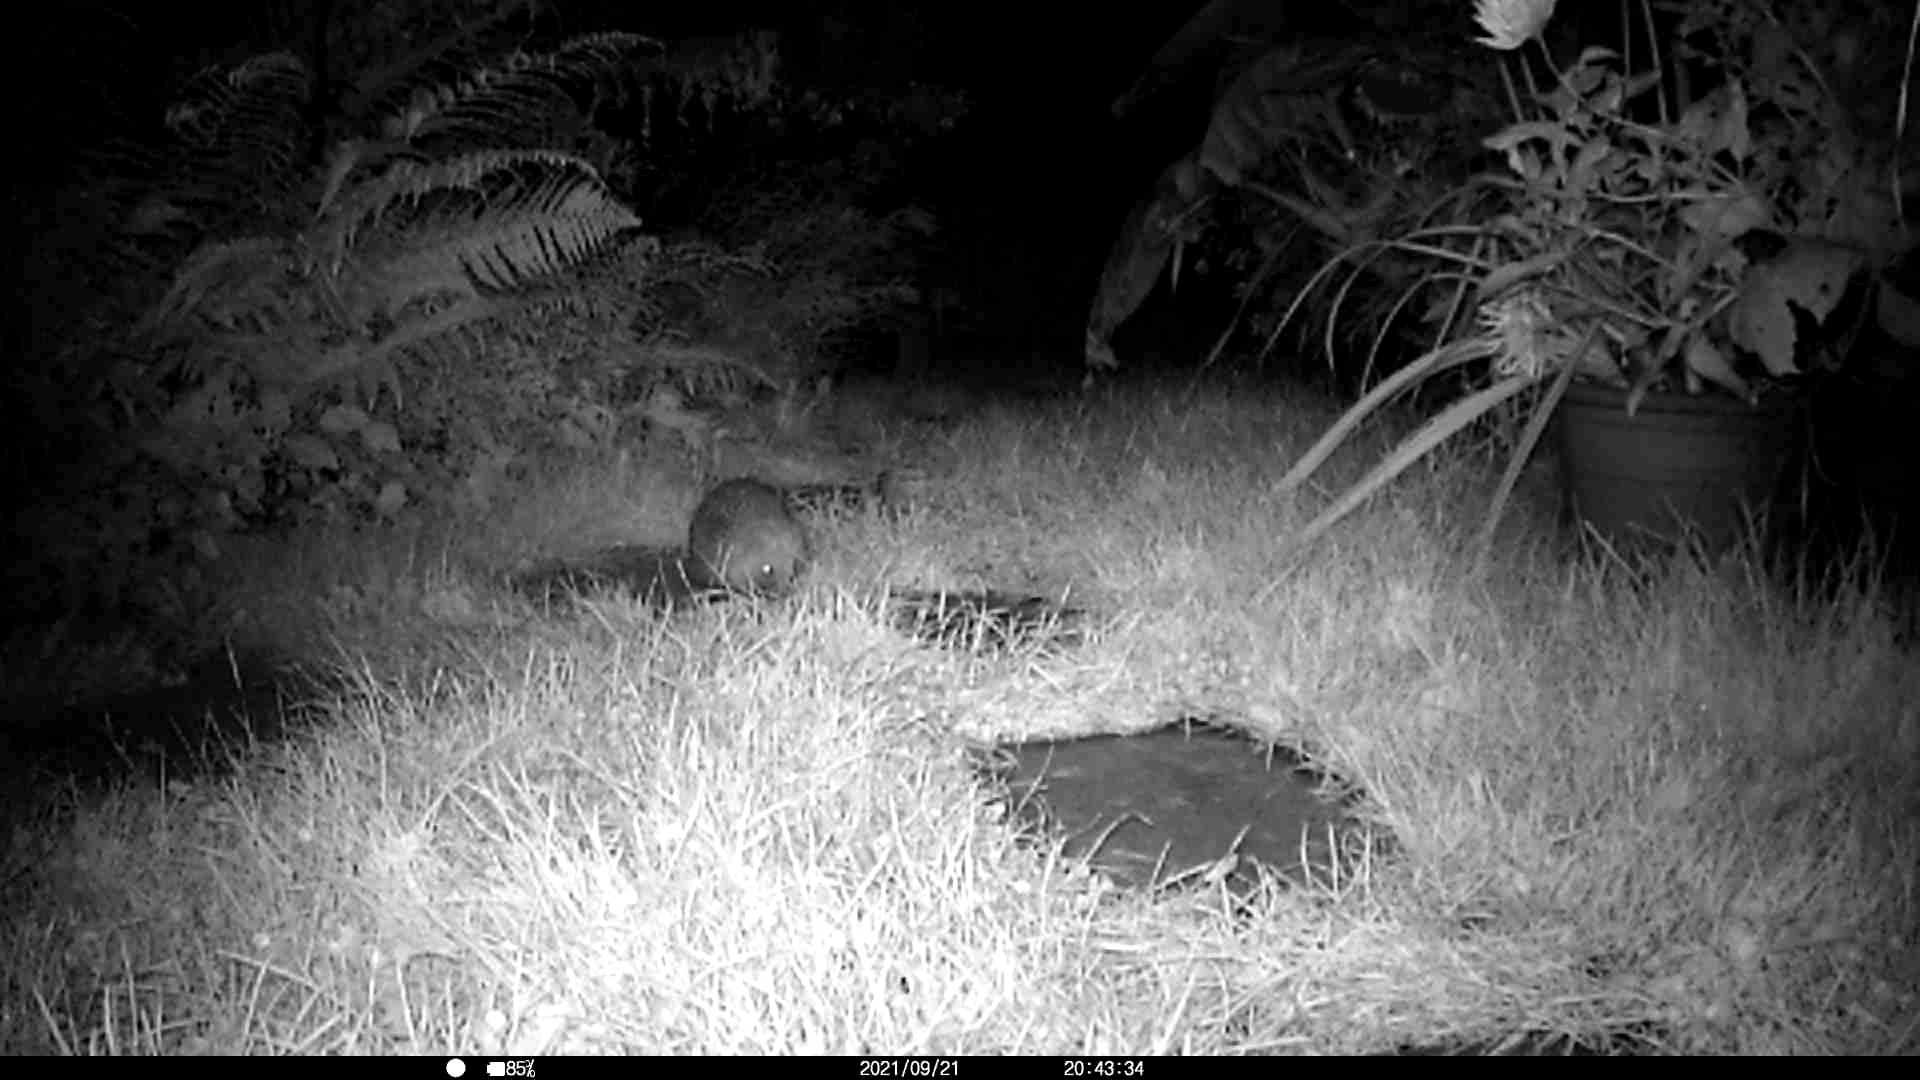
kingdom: Animalia
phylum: Chordata
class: Mammalia
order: Erinaceomorpha
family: Erinaceidae
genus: Erinaceus
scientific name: Erinaceus europaeus
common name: West european hedgehog
